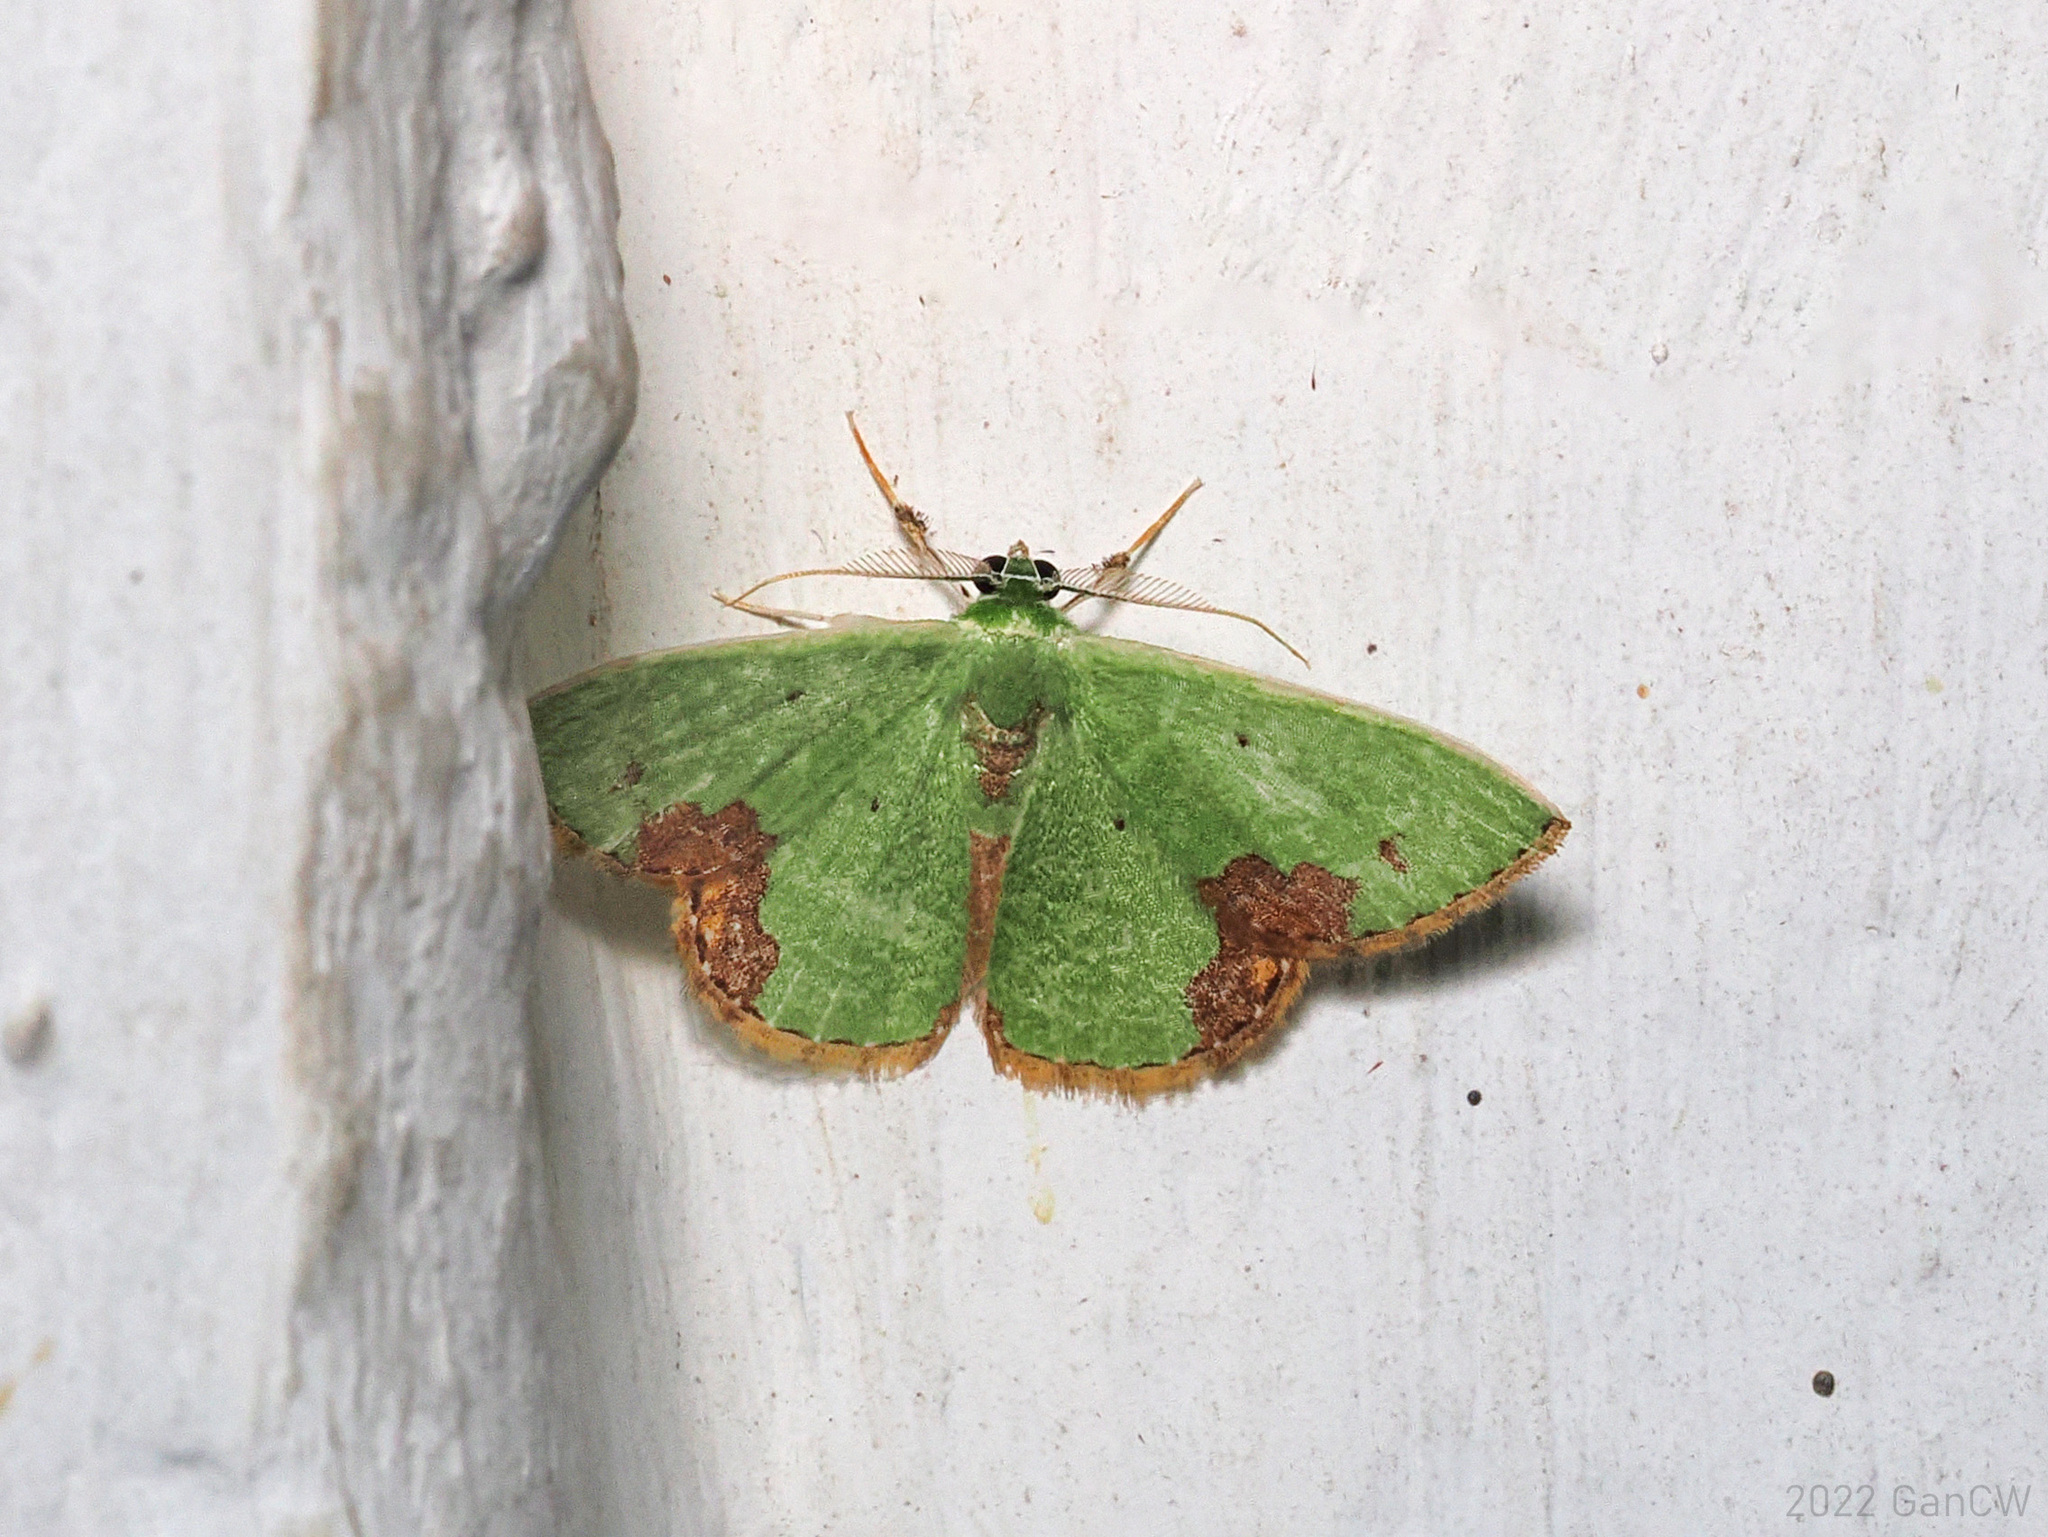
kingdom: Animalia
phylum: Arthropoda
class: Insecta
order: Lepidoptera
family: Geometridae
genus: Comibaena
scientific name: Comibaena attenuata
